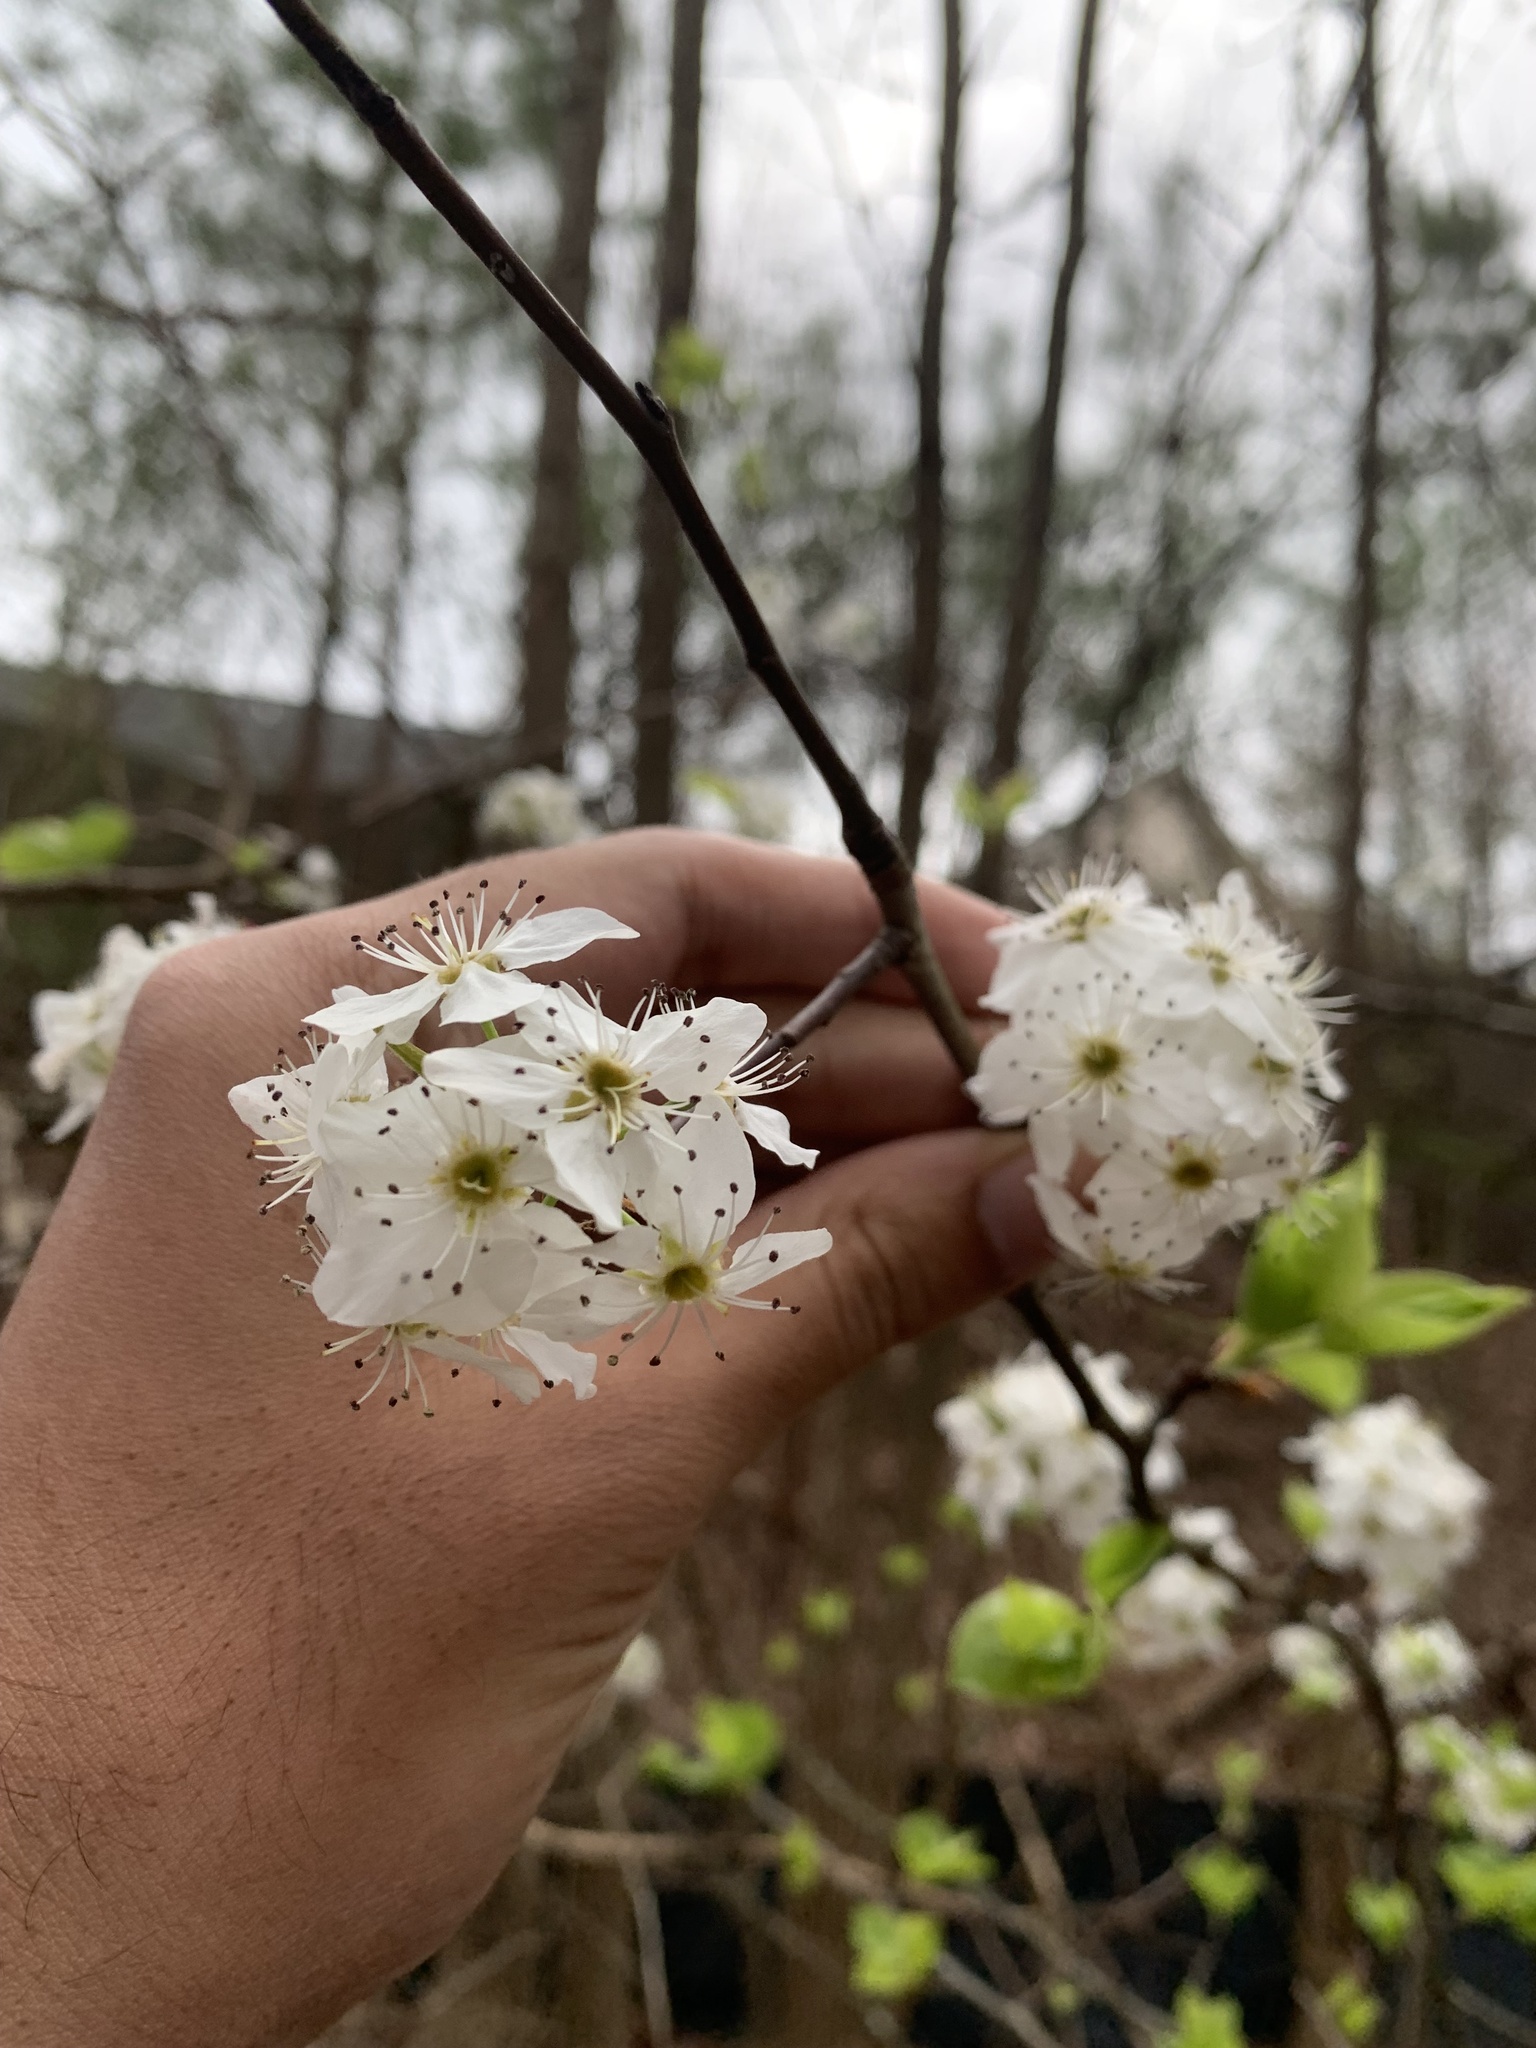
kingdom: Plantae
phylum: Tracheophyta
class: Magnoliopsida
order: Rosales
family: Rosaceae
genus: Pyrus
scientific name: Pyrus calleryana
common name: Callery pear
